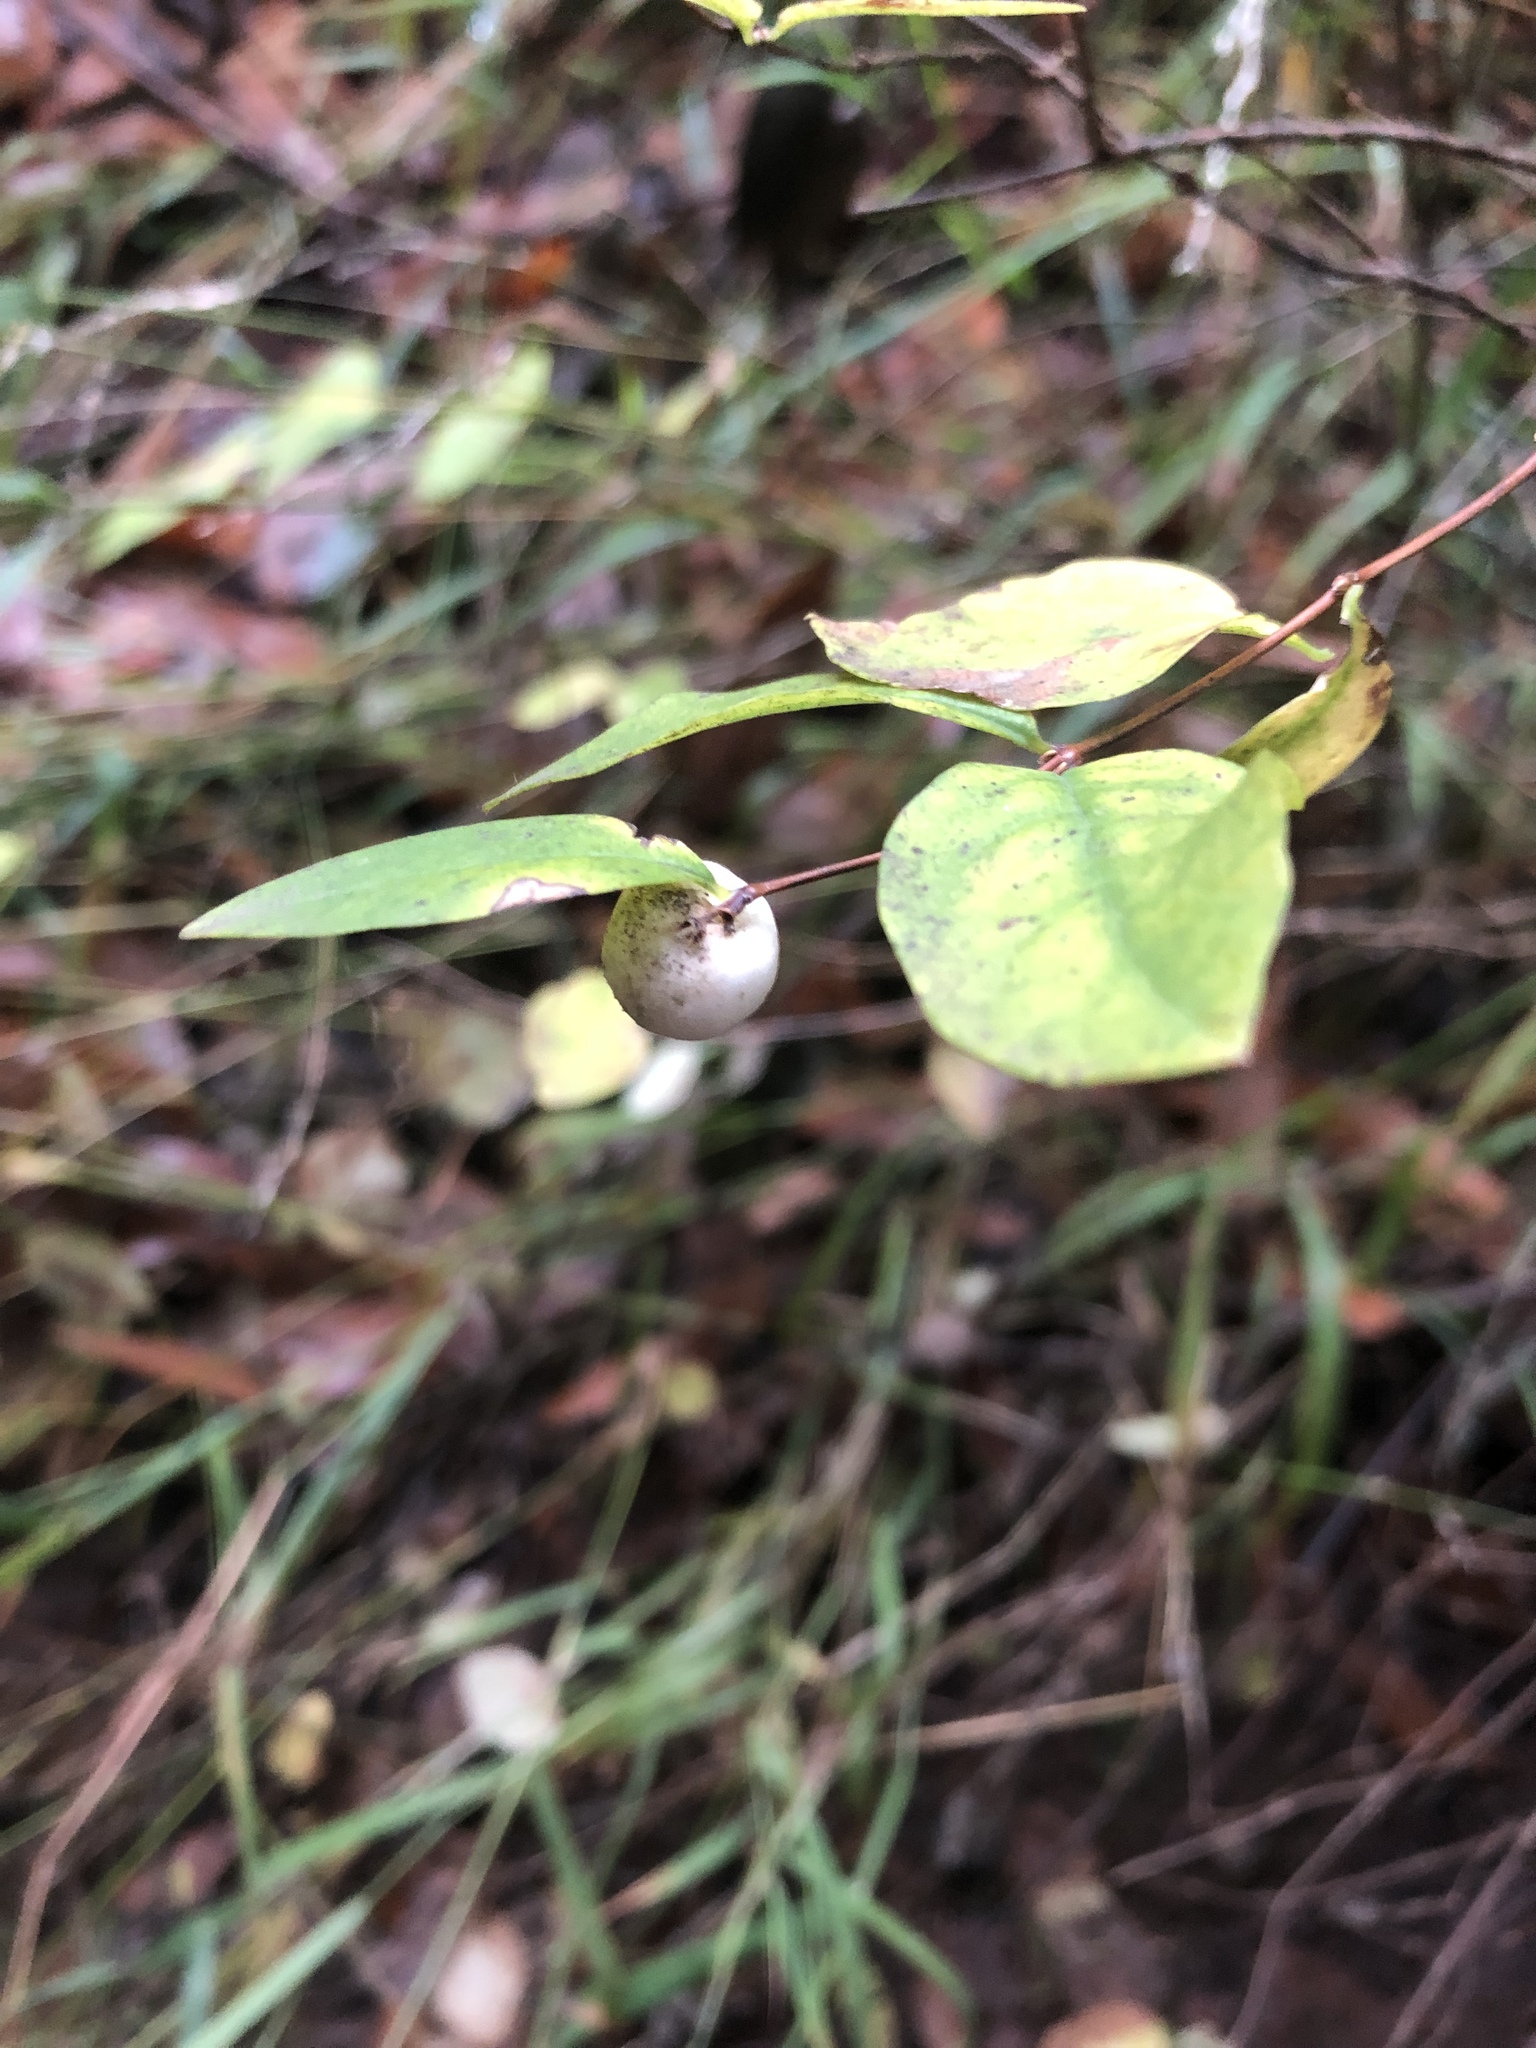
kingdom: Plantae
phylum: Tracheophyta
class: Magnoliopsida
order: Dipsacales
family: Caprifoliaceae
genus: Symphoricarpos
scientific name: Symphoricarpos albus
